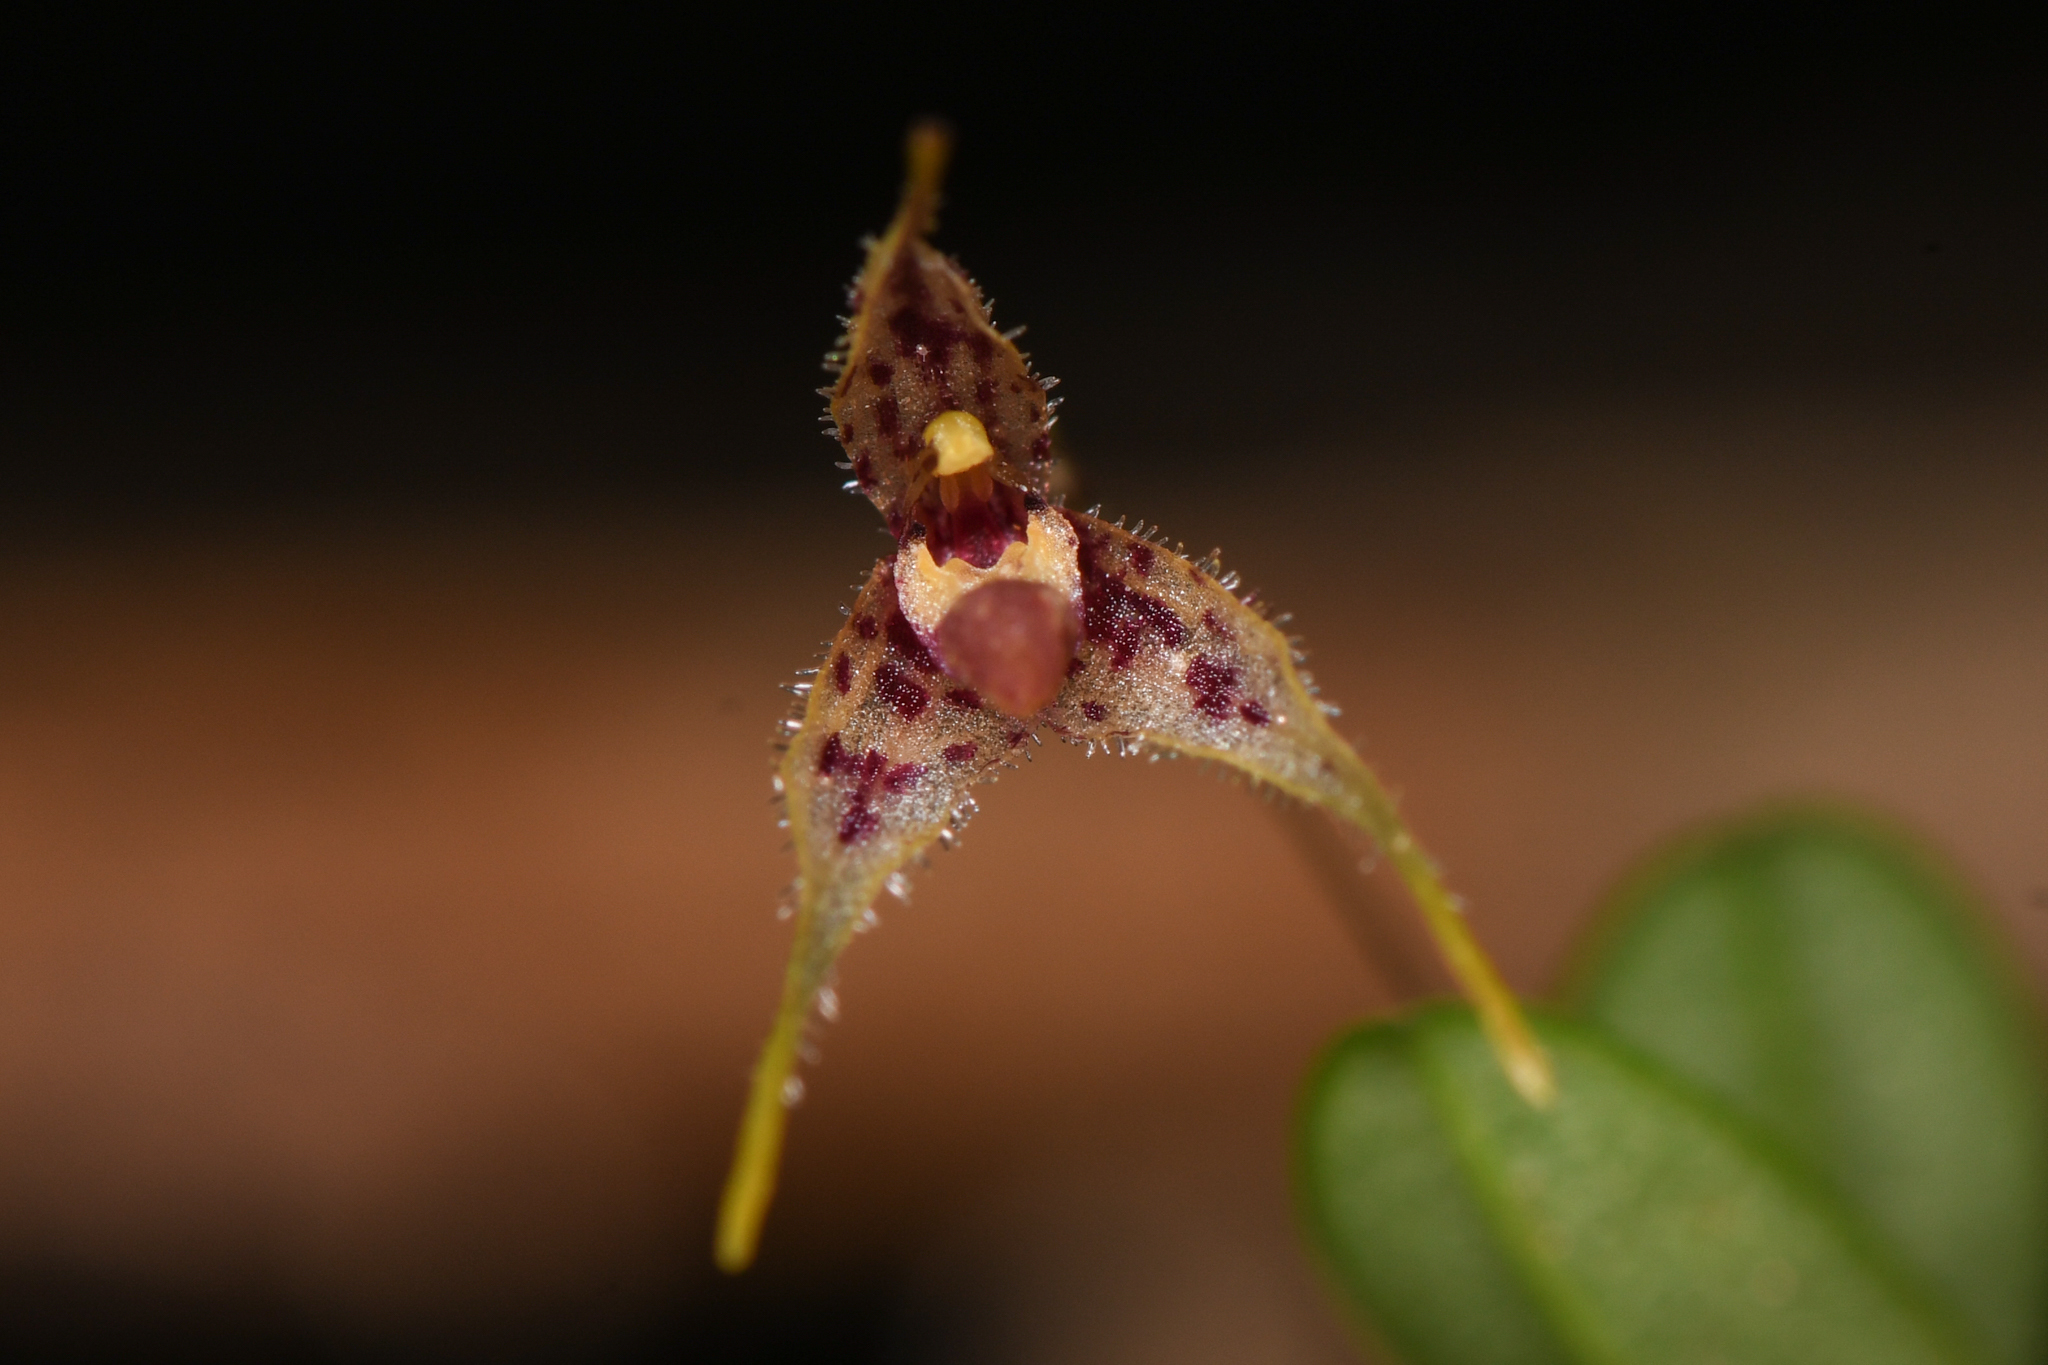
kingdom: Plantae
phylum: Tracheophyta
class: Liliopsida
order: Asparagales
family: Orchidaceae
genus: Muscarella
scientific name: Muscarella strumosa
